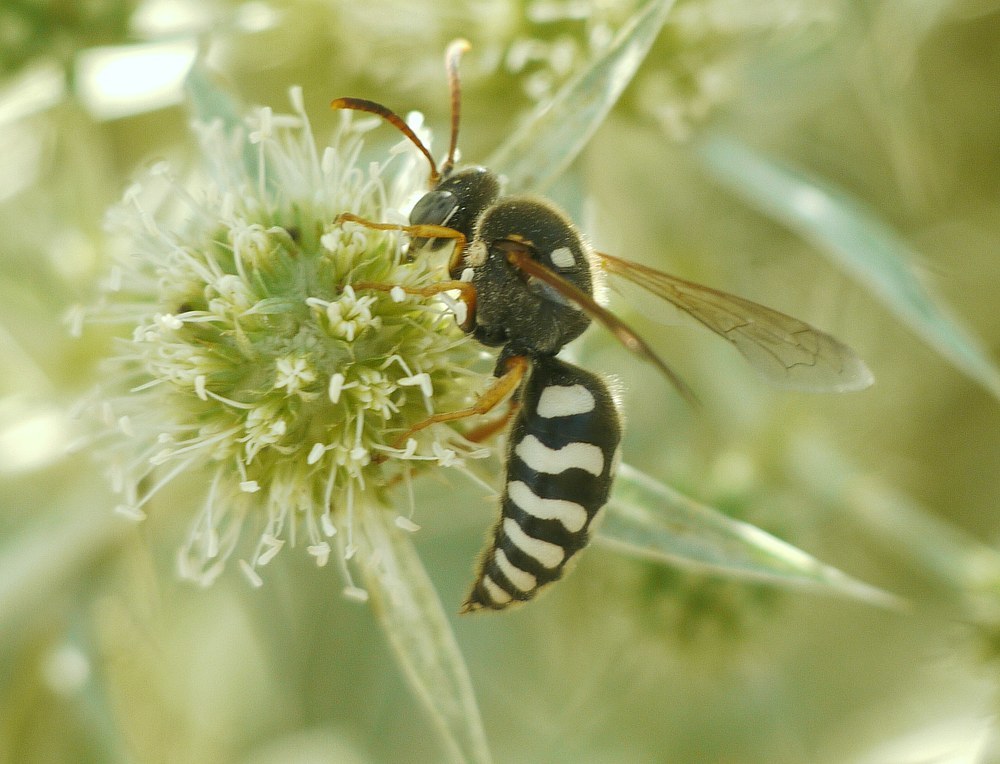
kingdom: Animalia
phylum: Arthropoda
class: Insecta
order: Hymenoptera
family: Crabronidae
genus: Stizus
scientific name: Stizus bipunctatus
